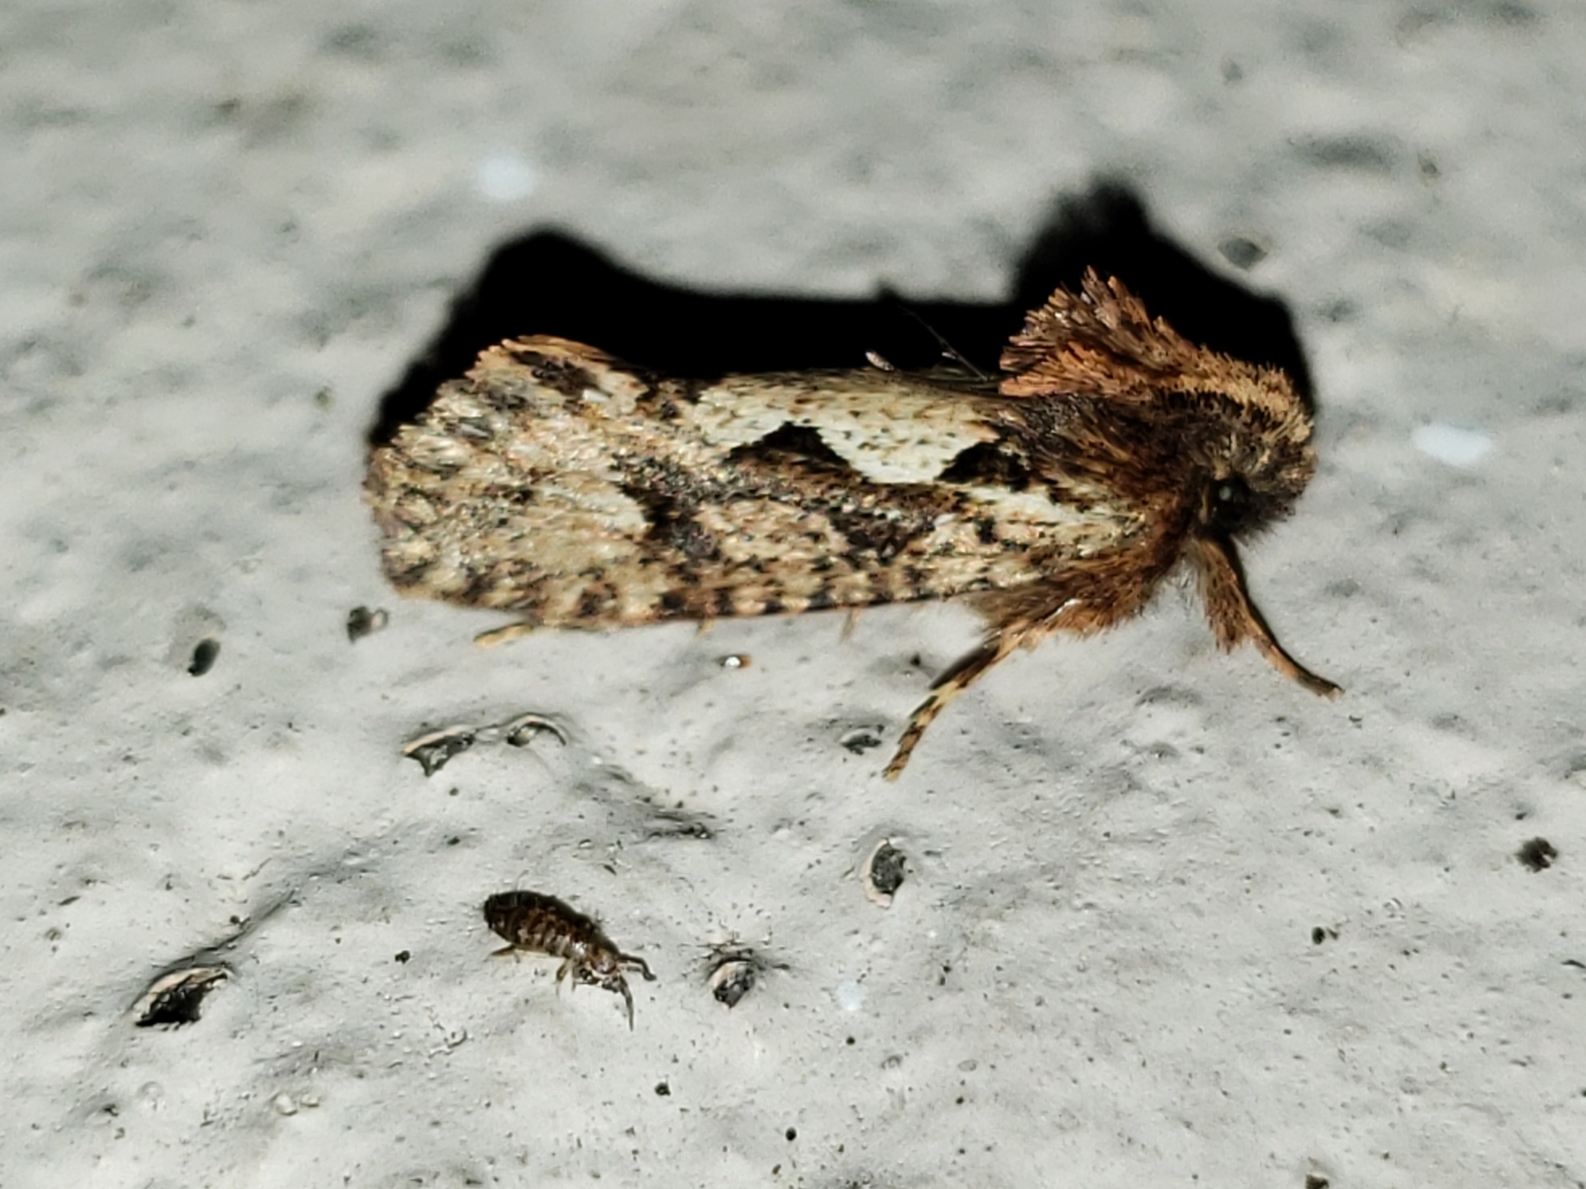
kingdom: Animalia
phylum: Arthropoda
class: Insecta
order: Lepidoptera
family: Tineidae
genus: Acrolophus
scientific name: Acrolophus walsinghami
